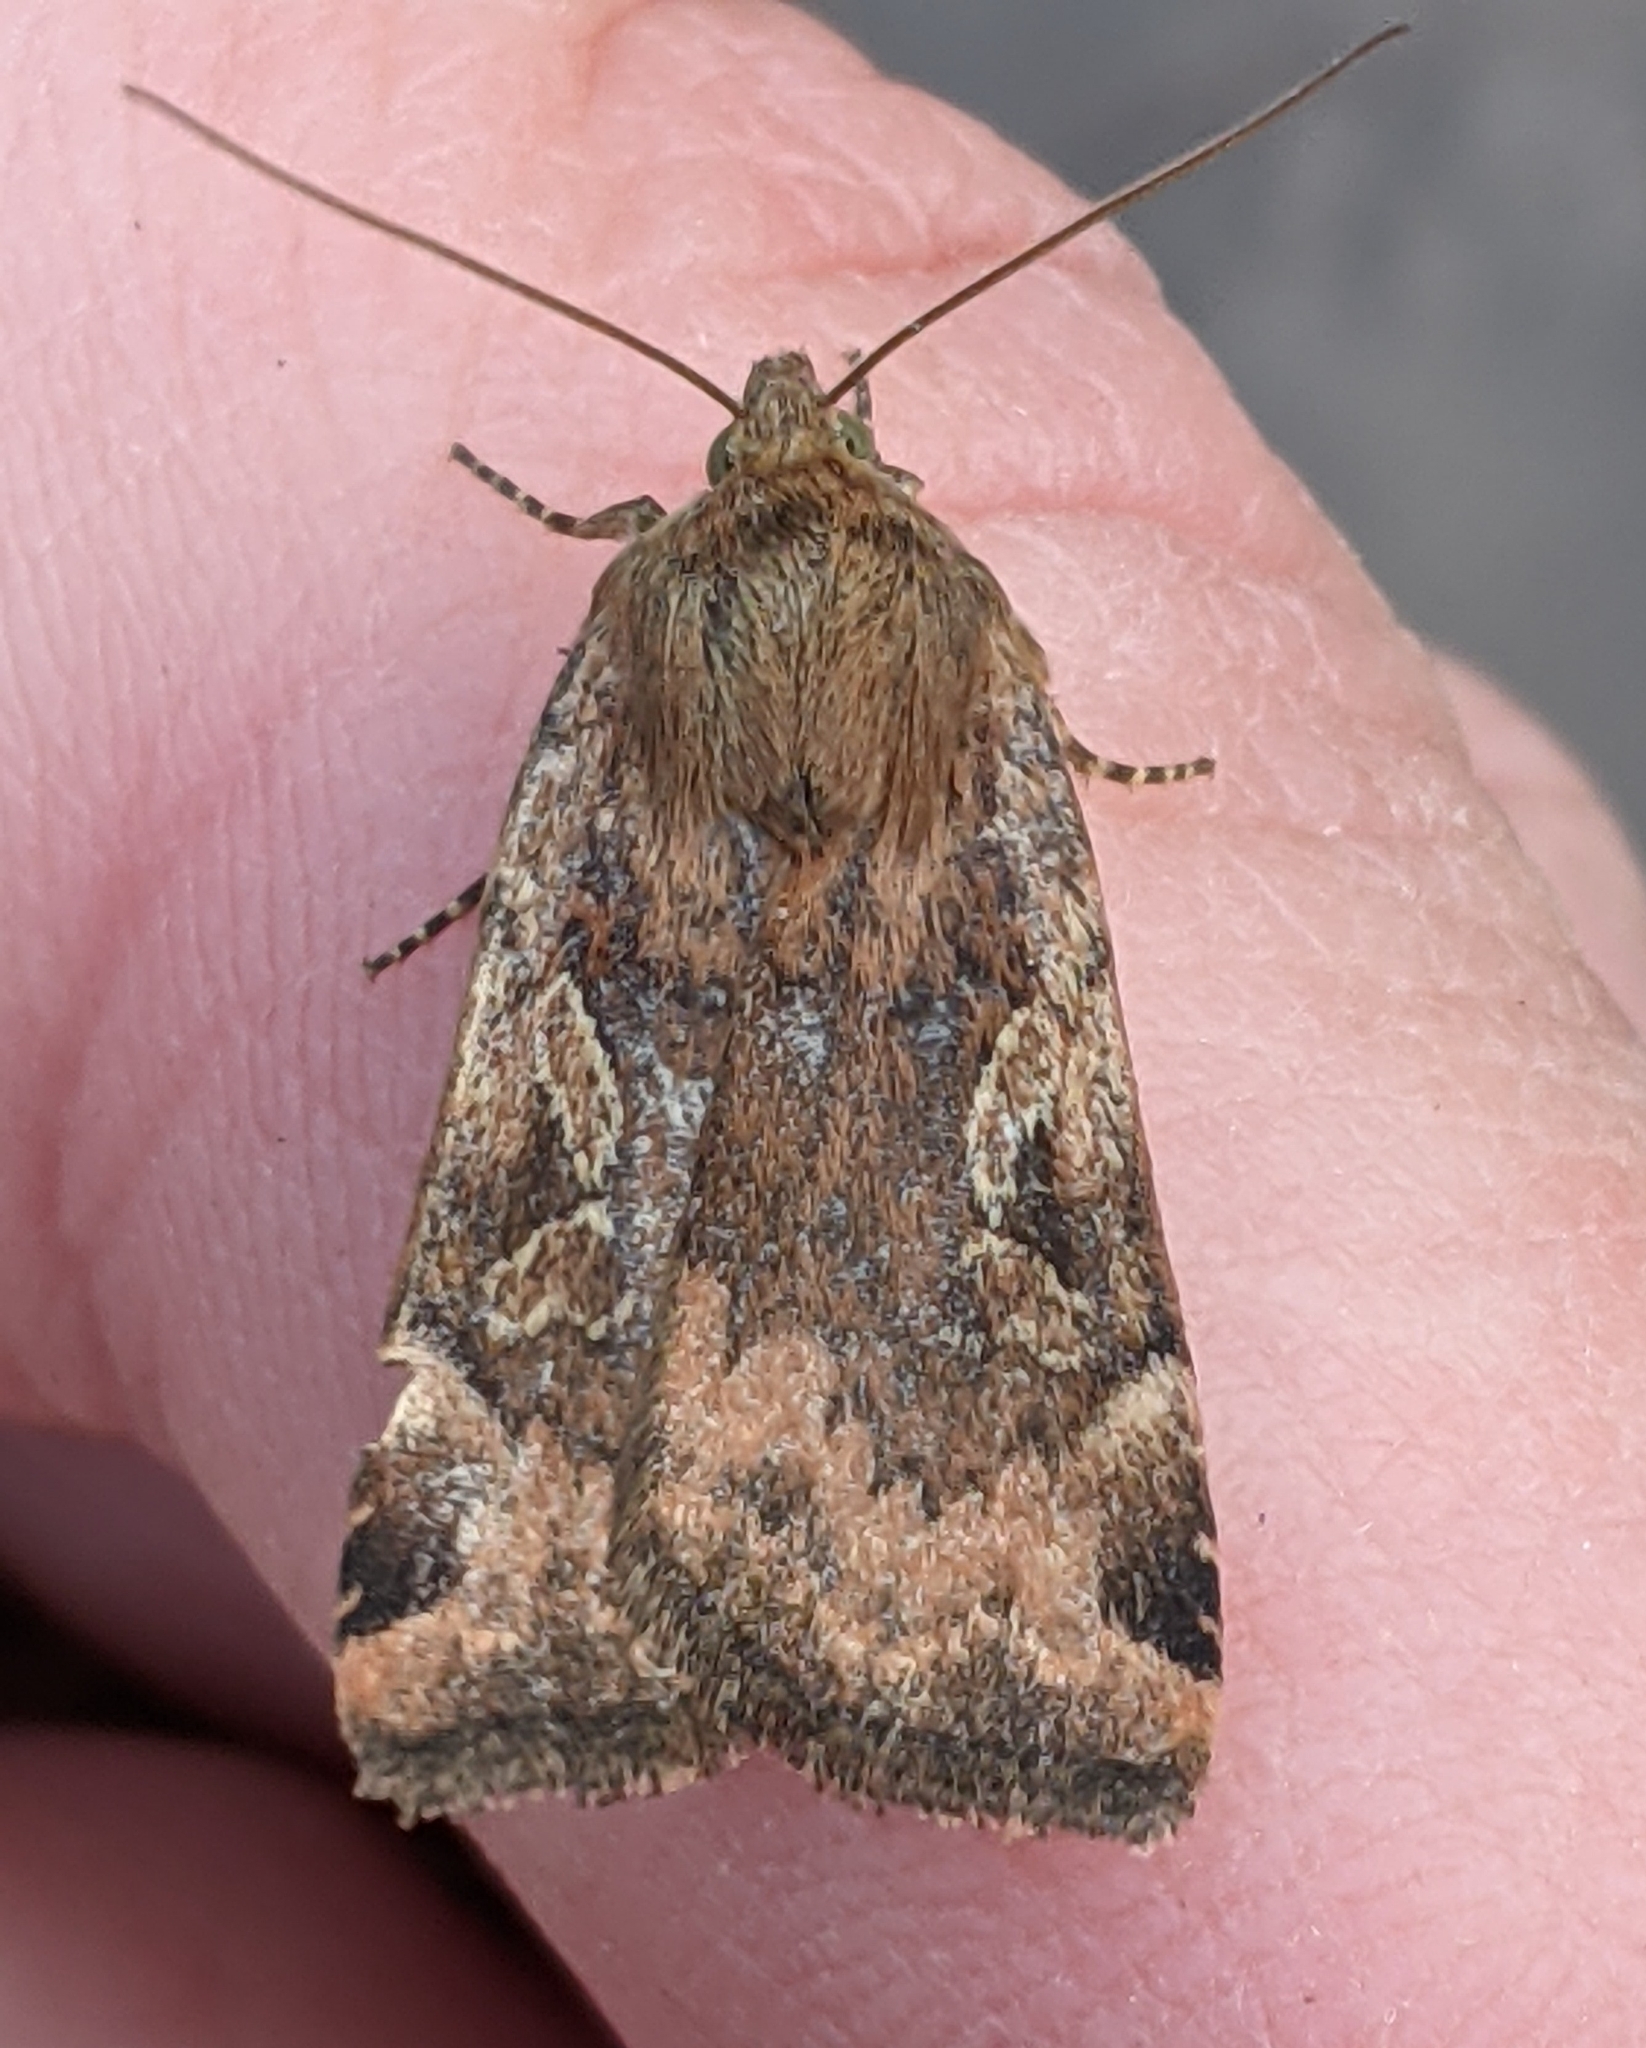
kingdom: Animalia
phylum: Arthropoda
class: Insecta
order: Lepidoptera
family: Noctuidae
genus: Cryptocala
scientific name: Cryptocala acadiensis
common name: Catocaline dart
